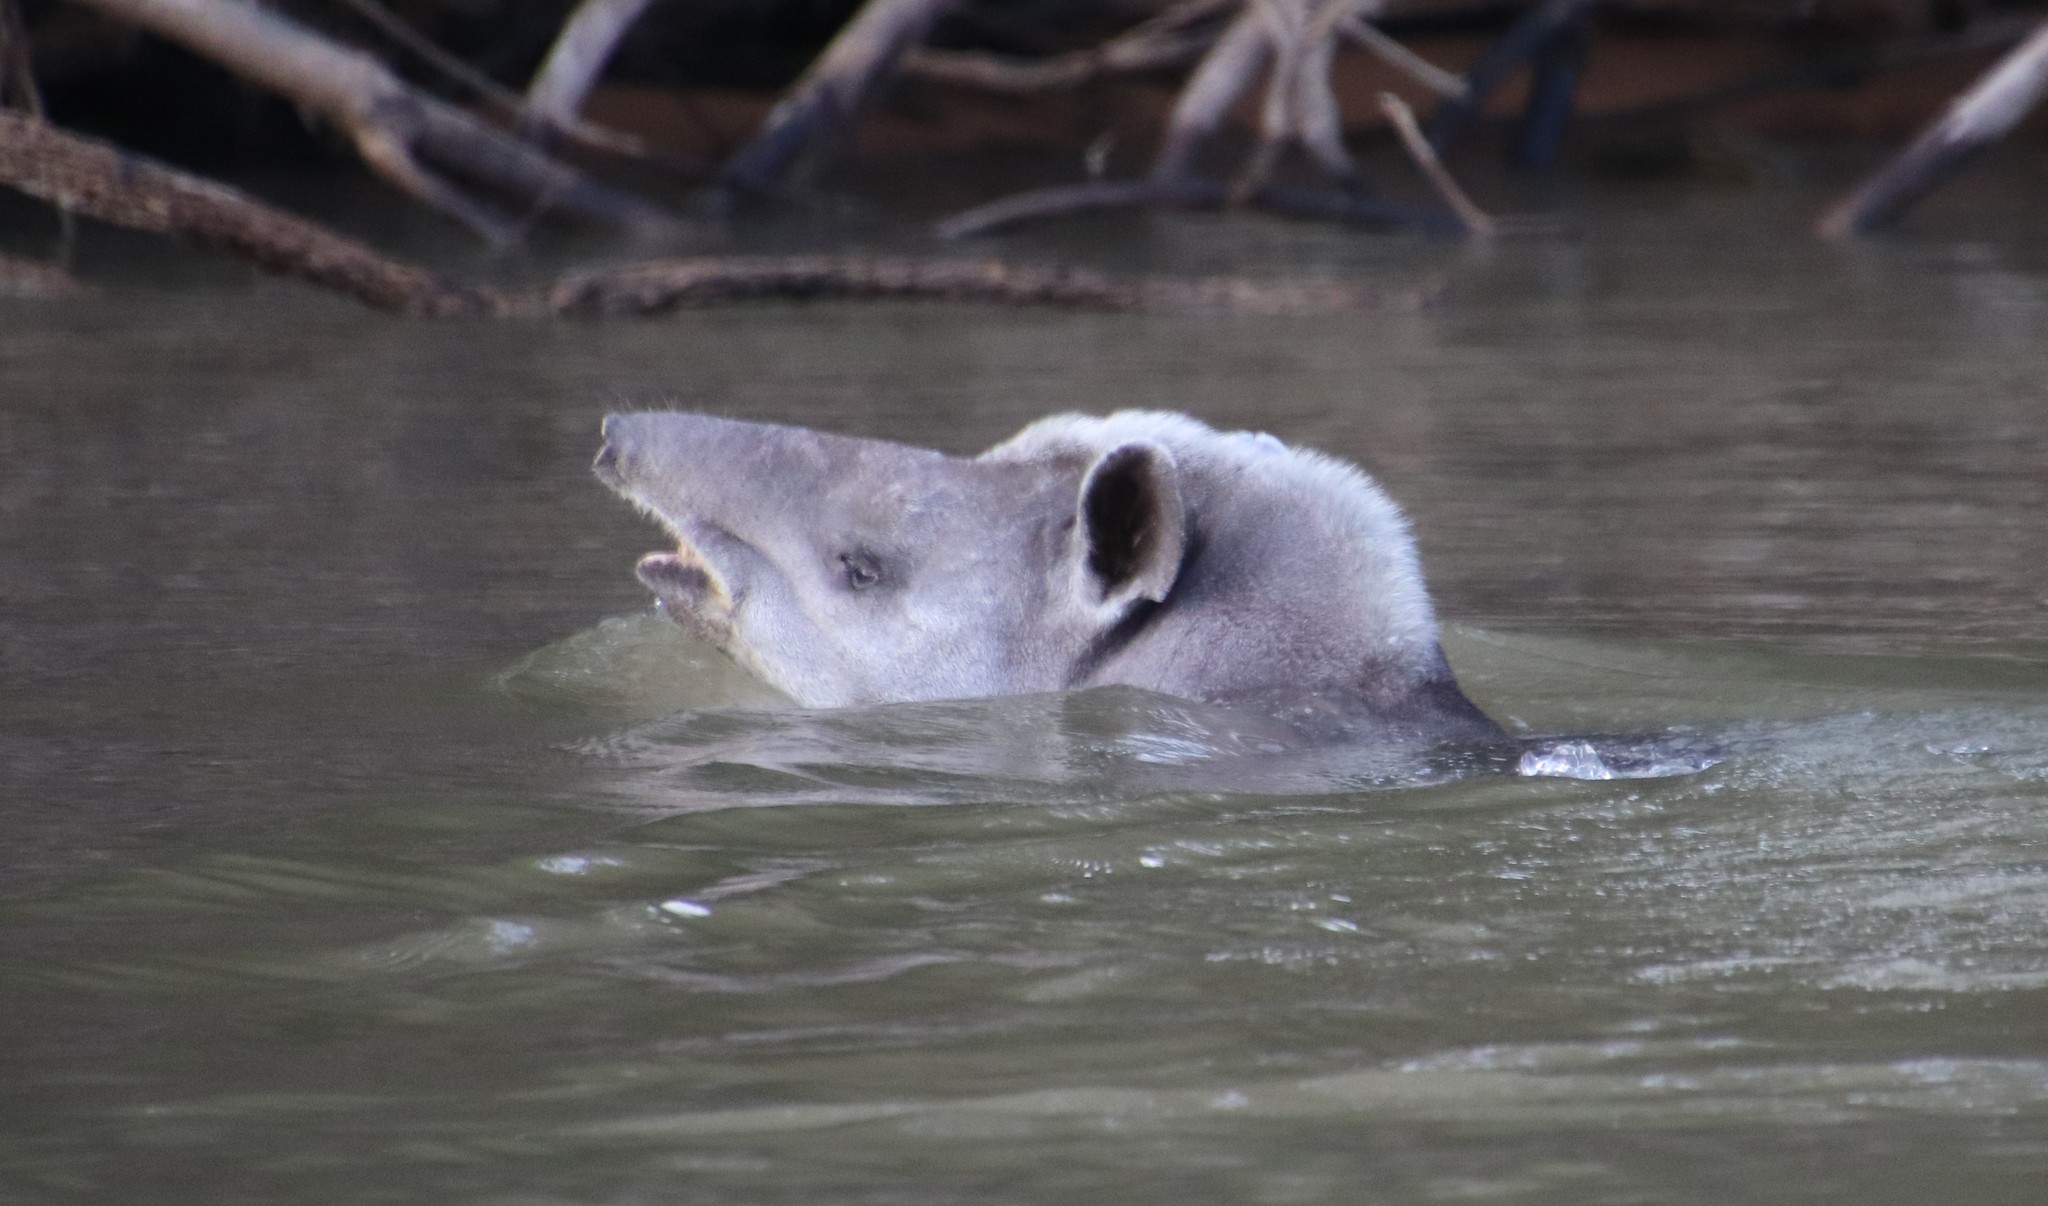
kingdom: Animalia
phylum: Chordata
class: Mammalia
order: Perissodactyla
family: Tapiridae
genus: Tapirus
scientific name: Tapirus terrestris
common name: Brazilian tapir
